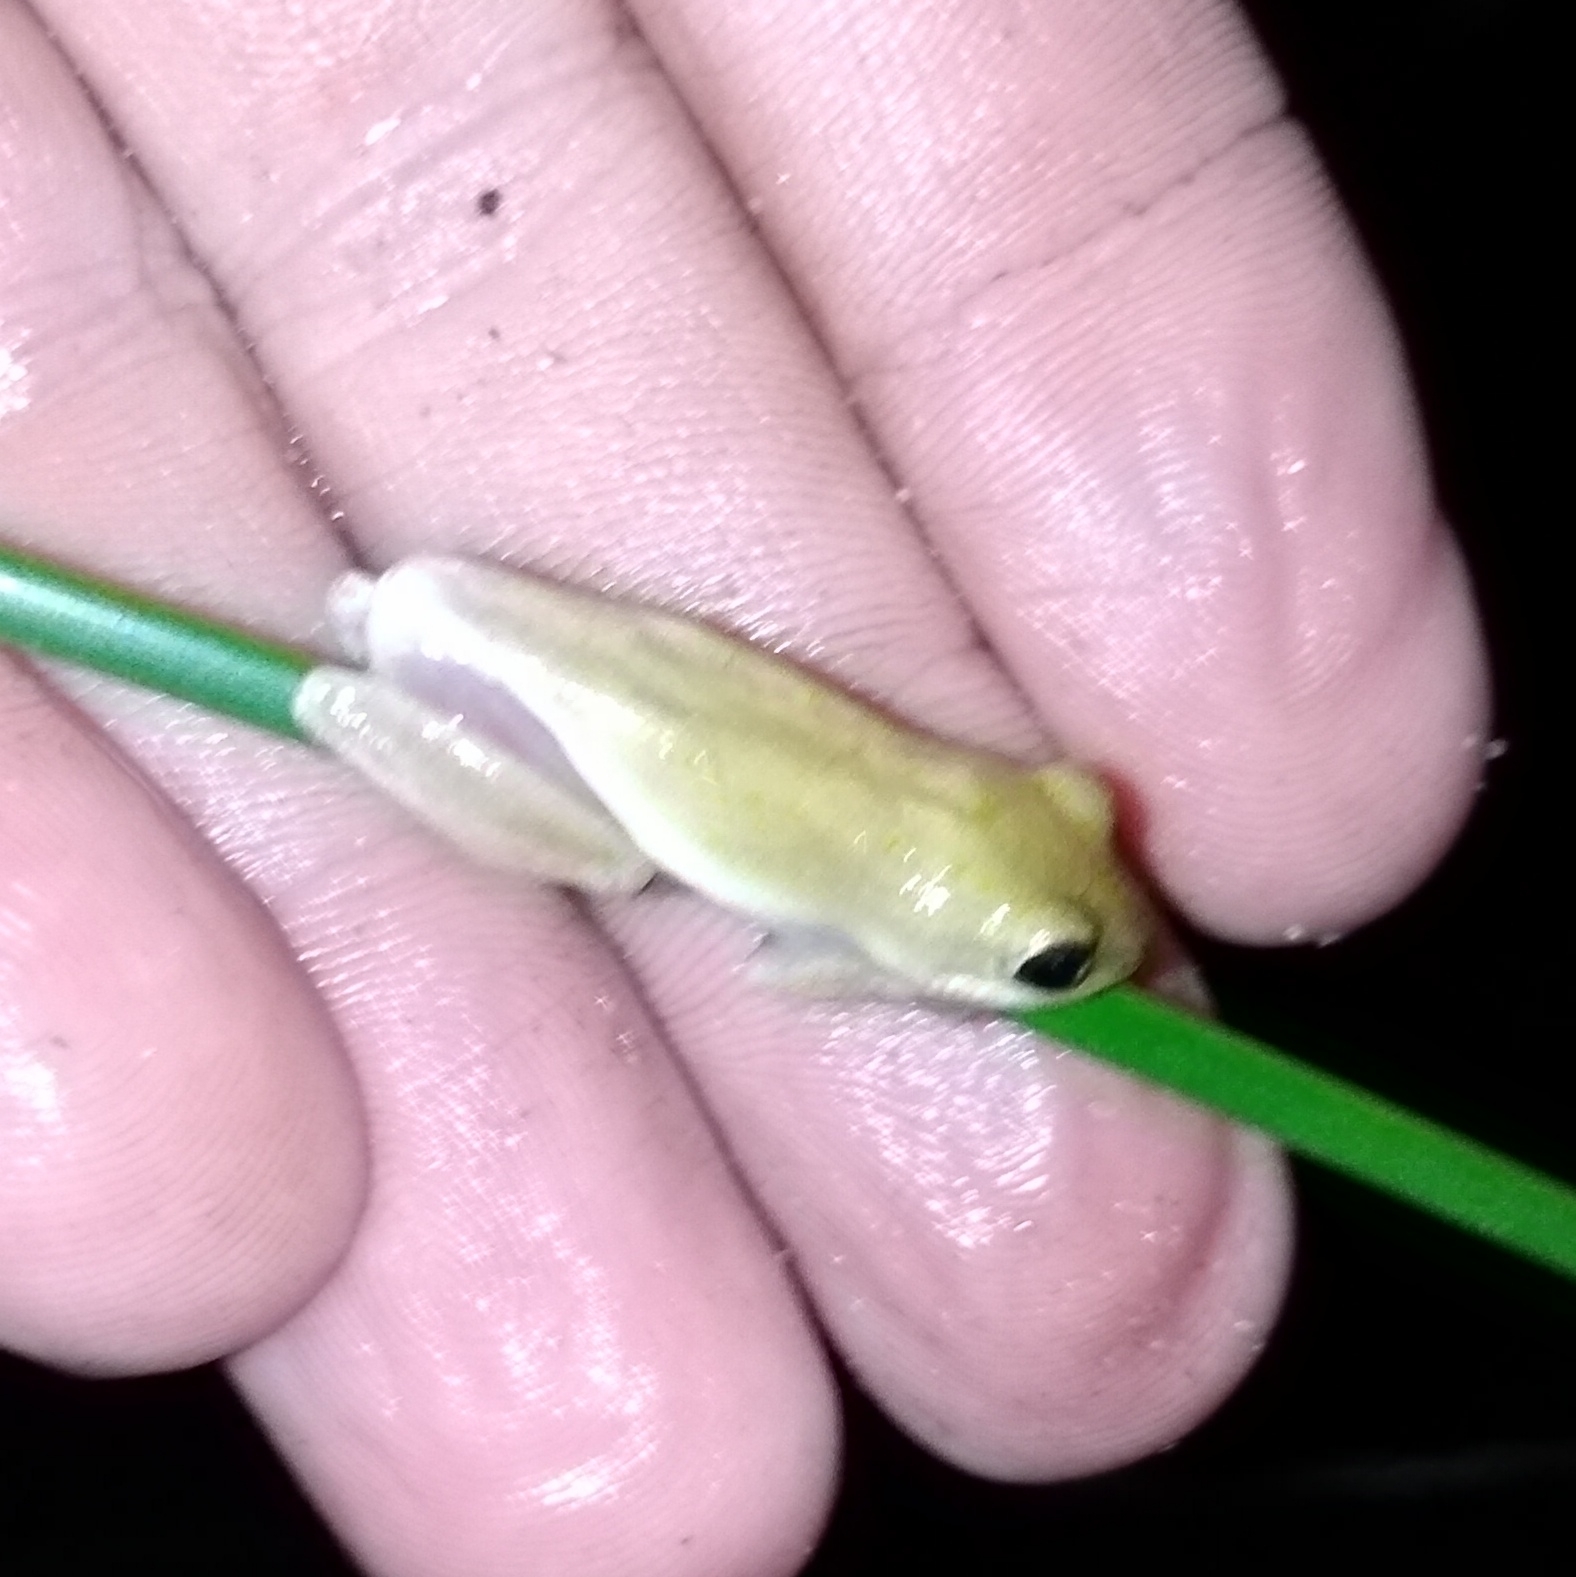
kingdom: Animalia
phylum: Chordata
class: Amphibia
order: Anura
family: Hyperoliidae
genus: Hyperolius
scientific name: Hyperolius marmoratus
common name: Painted reed frog
